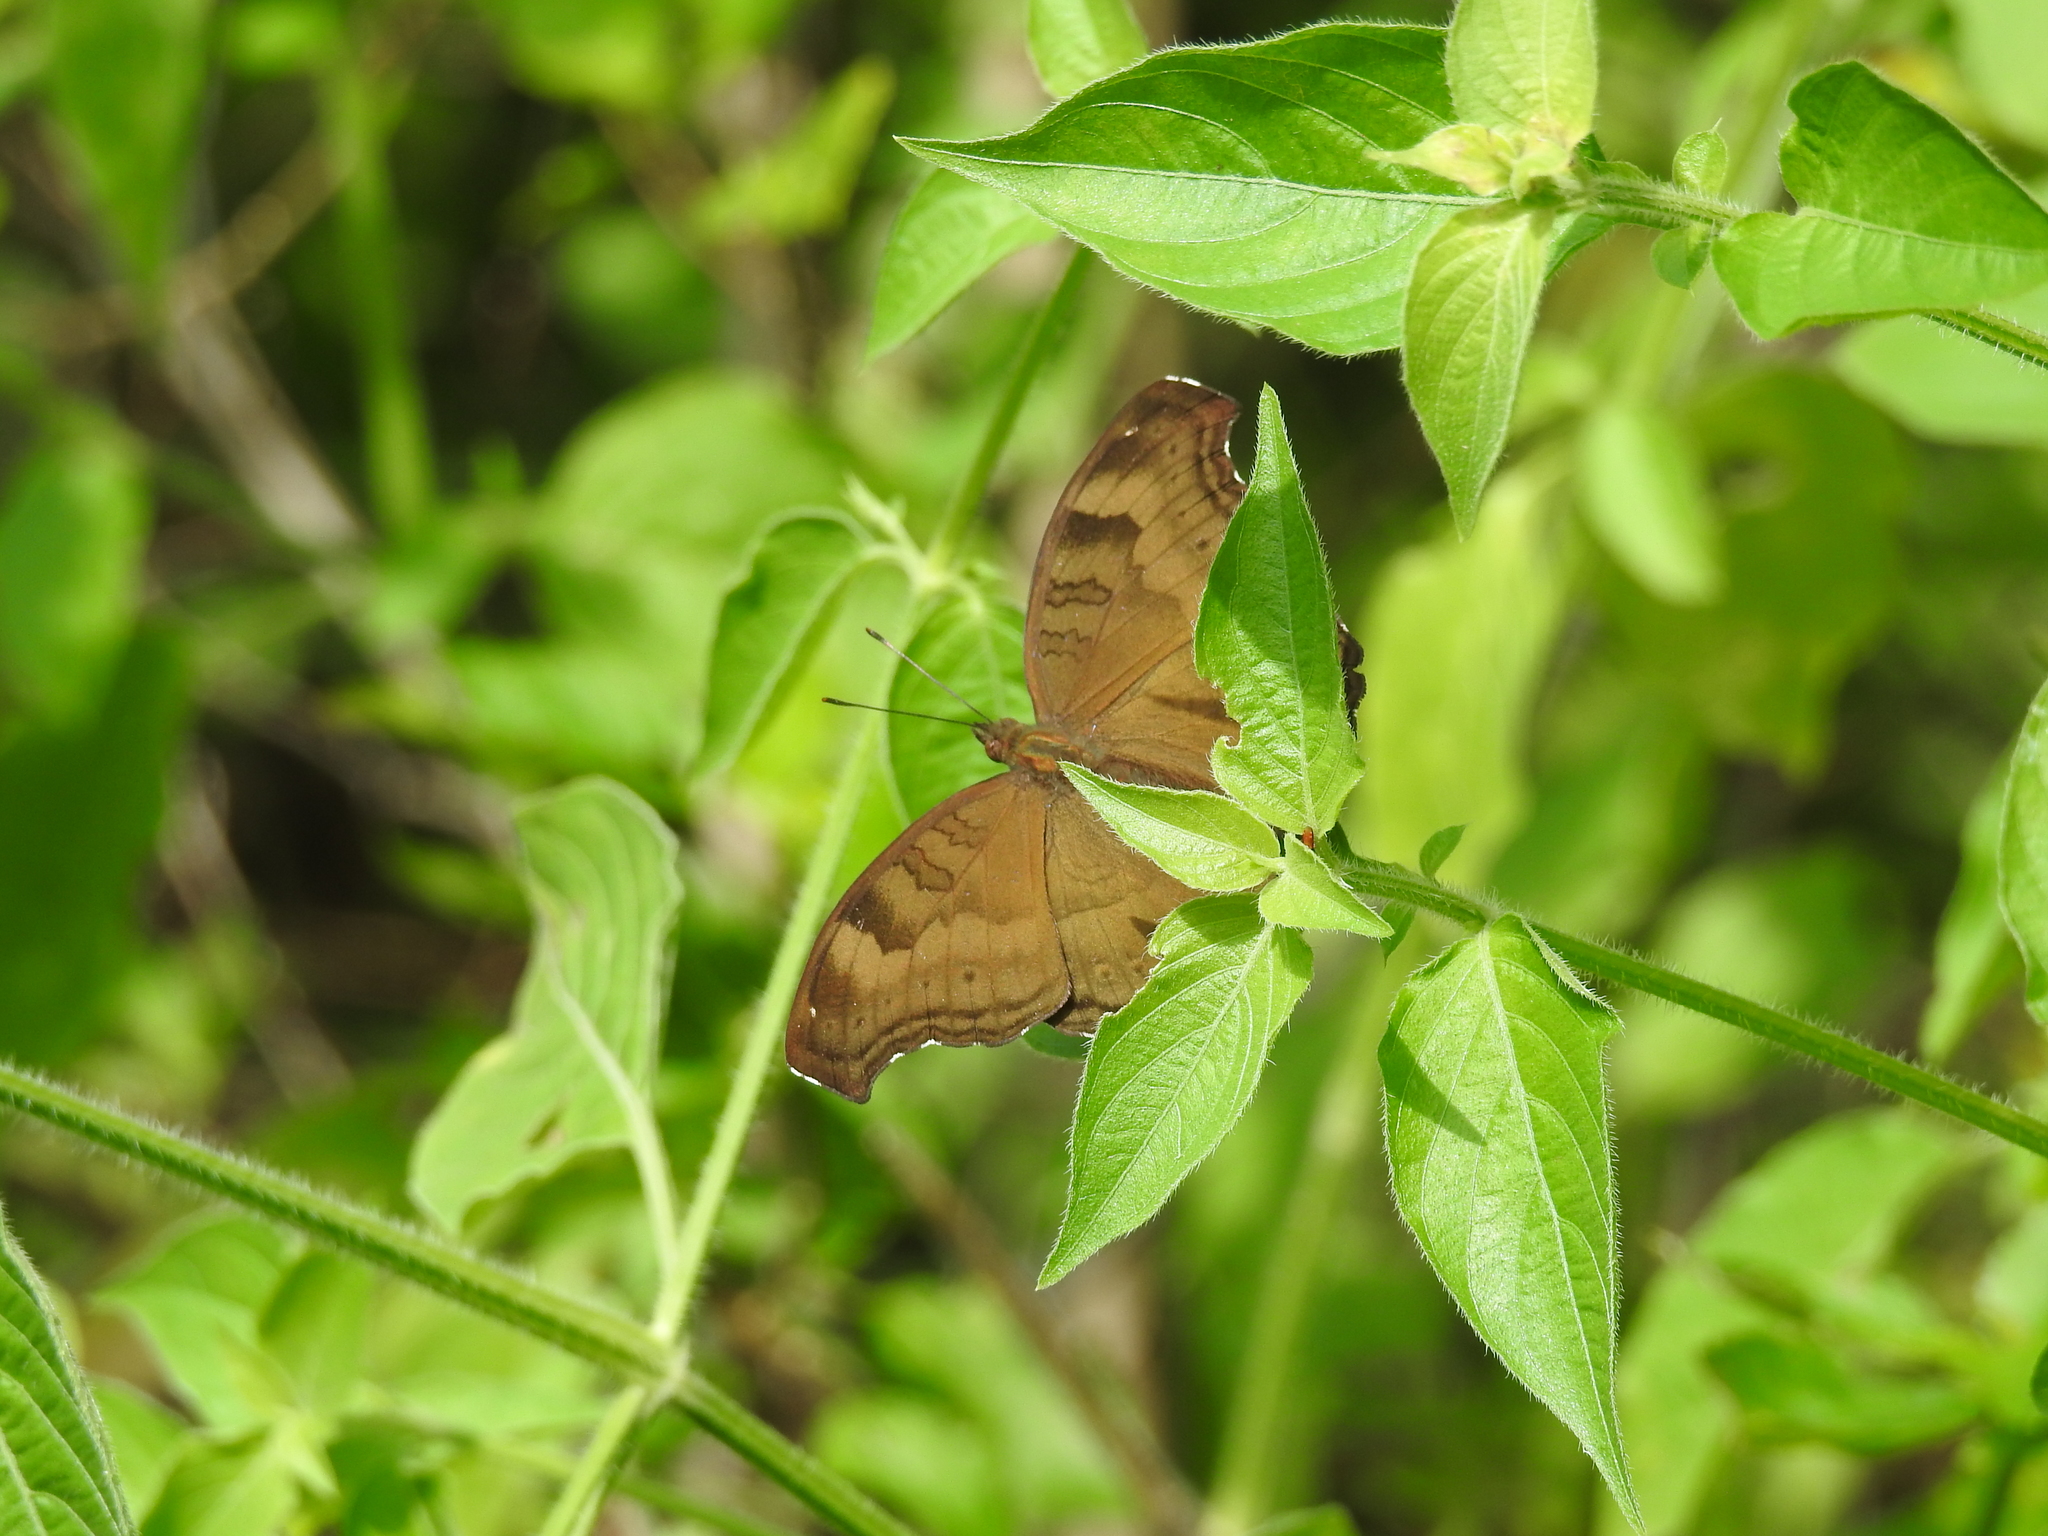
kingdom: Animalia
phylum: Arthropoda
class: Insecta
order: Lepidoptera
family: Nymphalidae
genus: Junonia
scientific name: Junonia iphita
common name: Chocolate pansy
